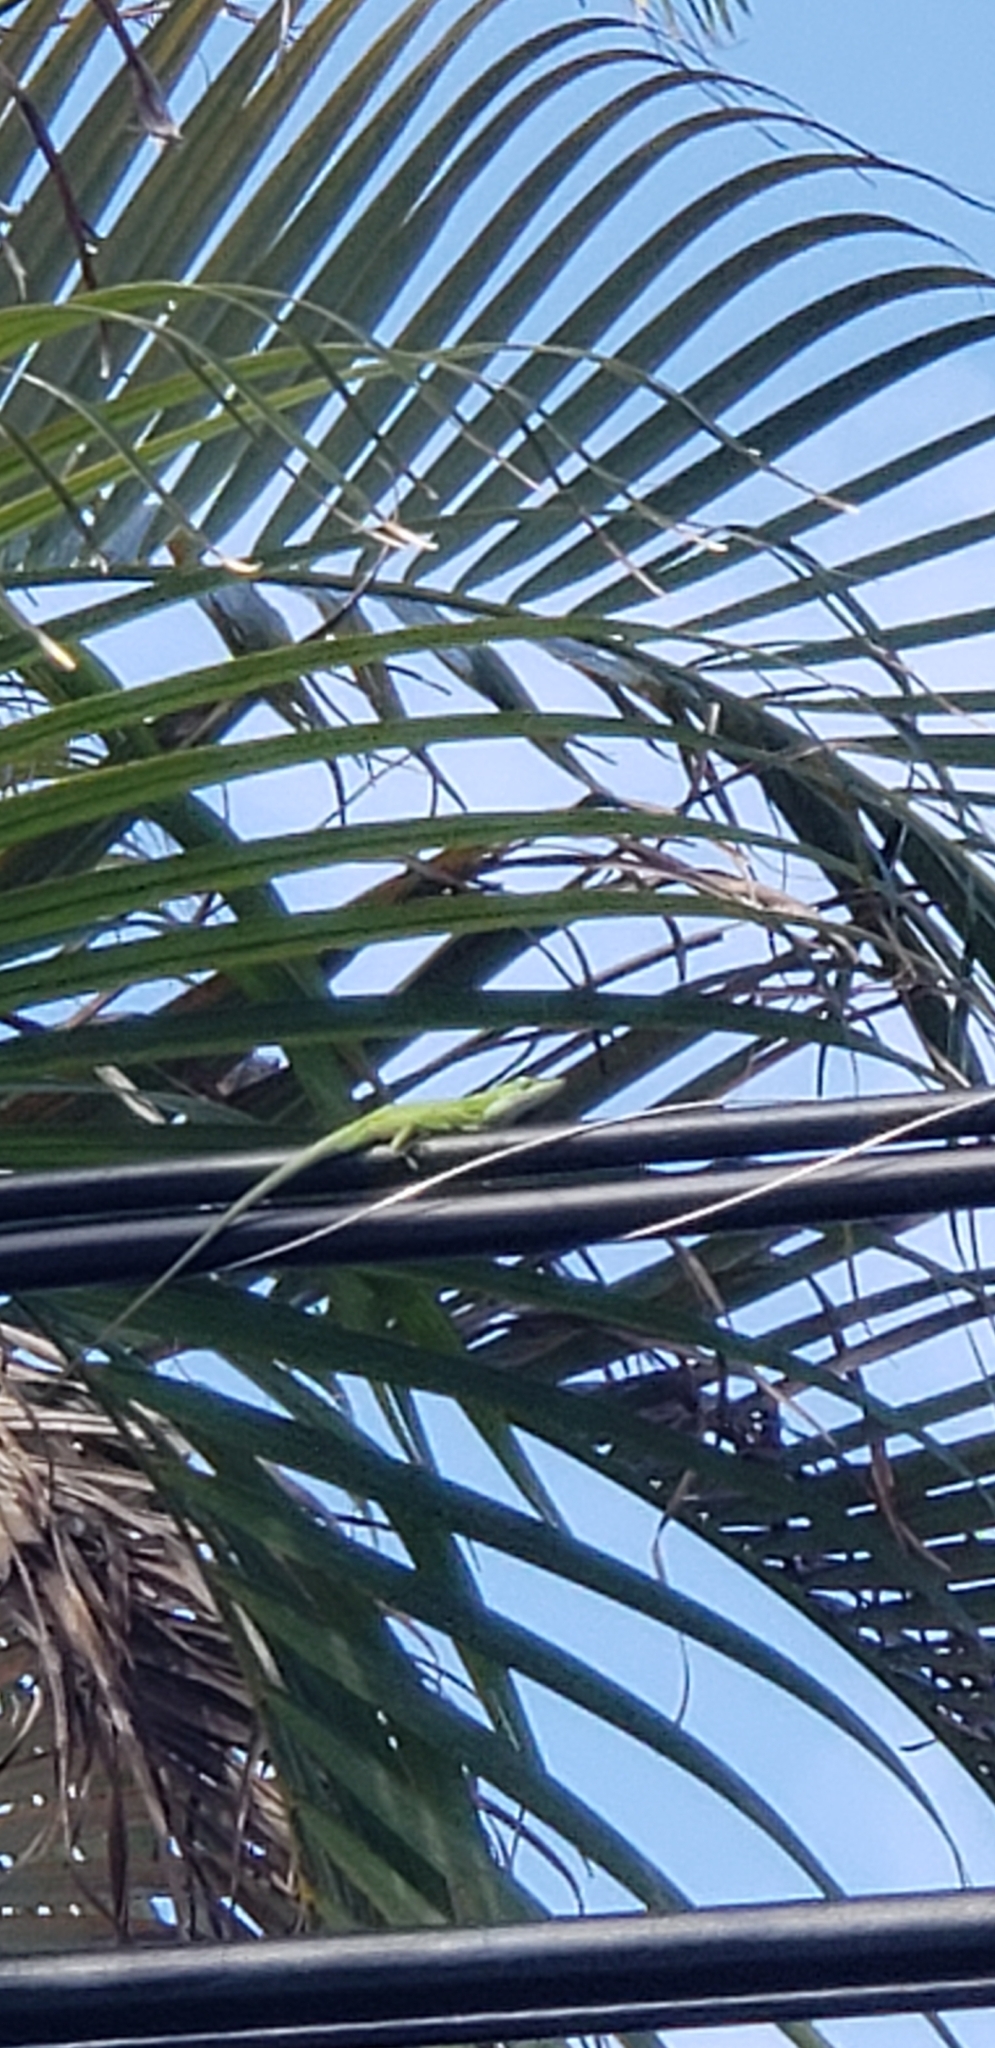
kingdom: Animalia
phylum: Chordata
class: Squamata
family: Dactyloidae
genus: Anolis
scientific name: Anolis carolinensis
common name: Green anole
